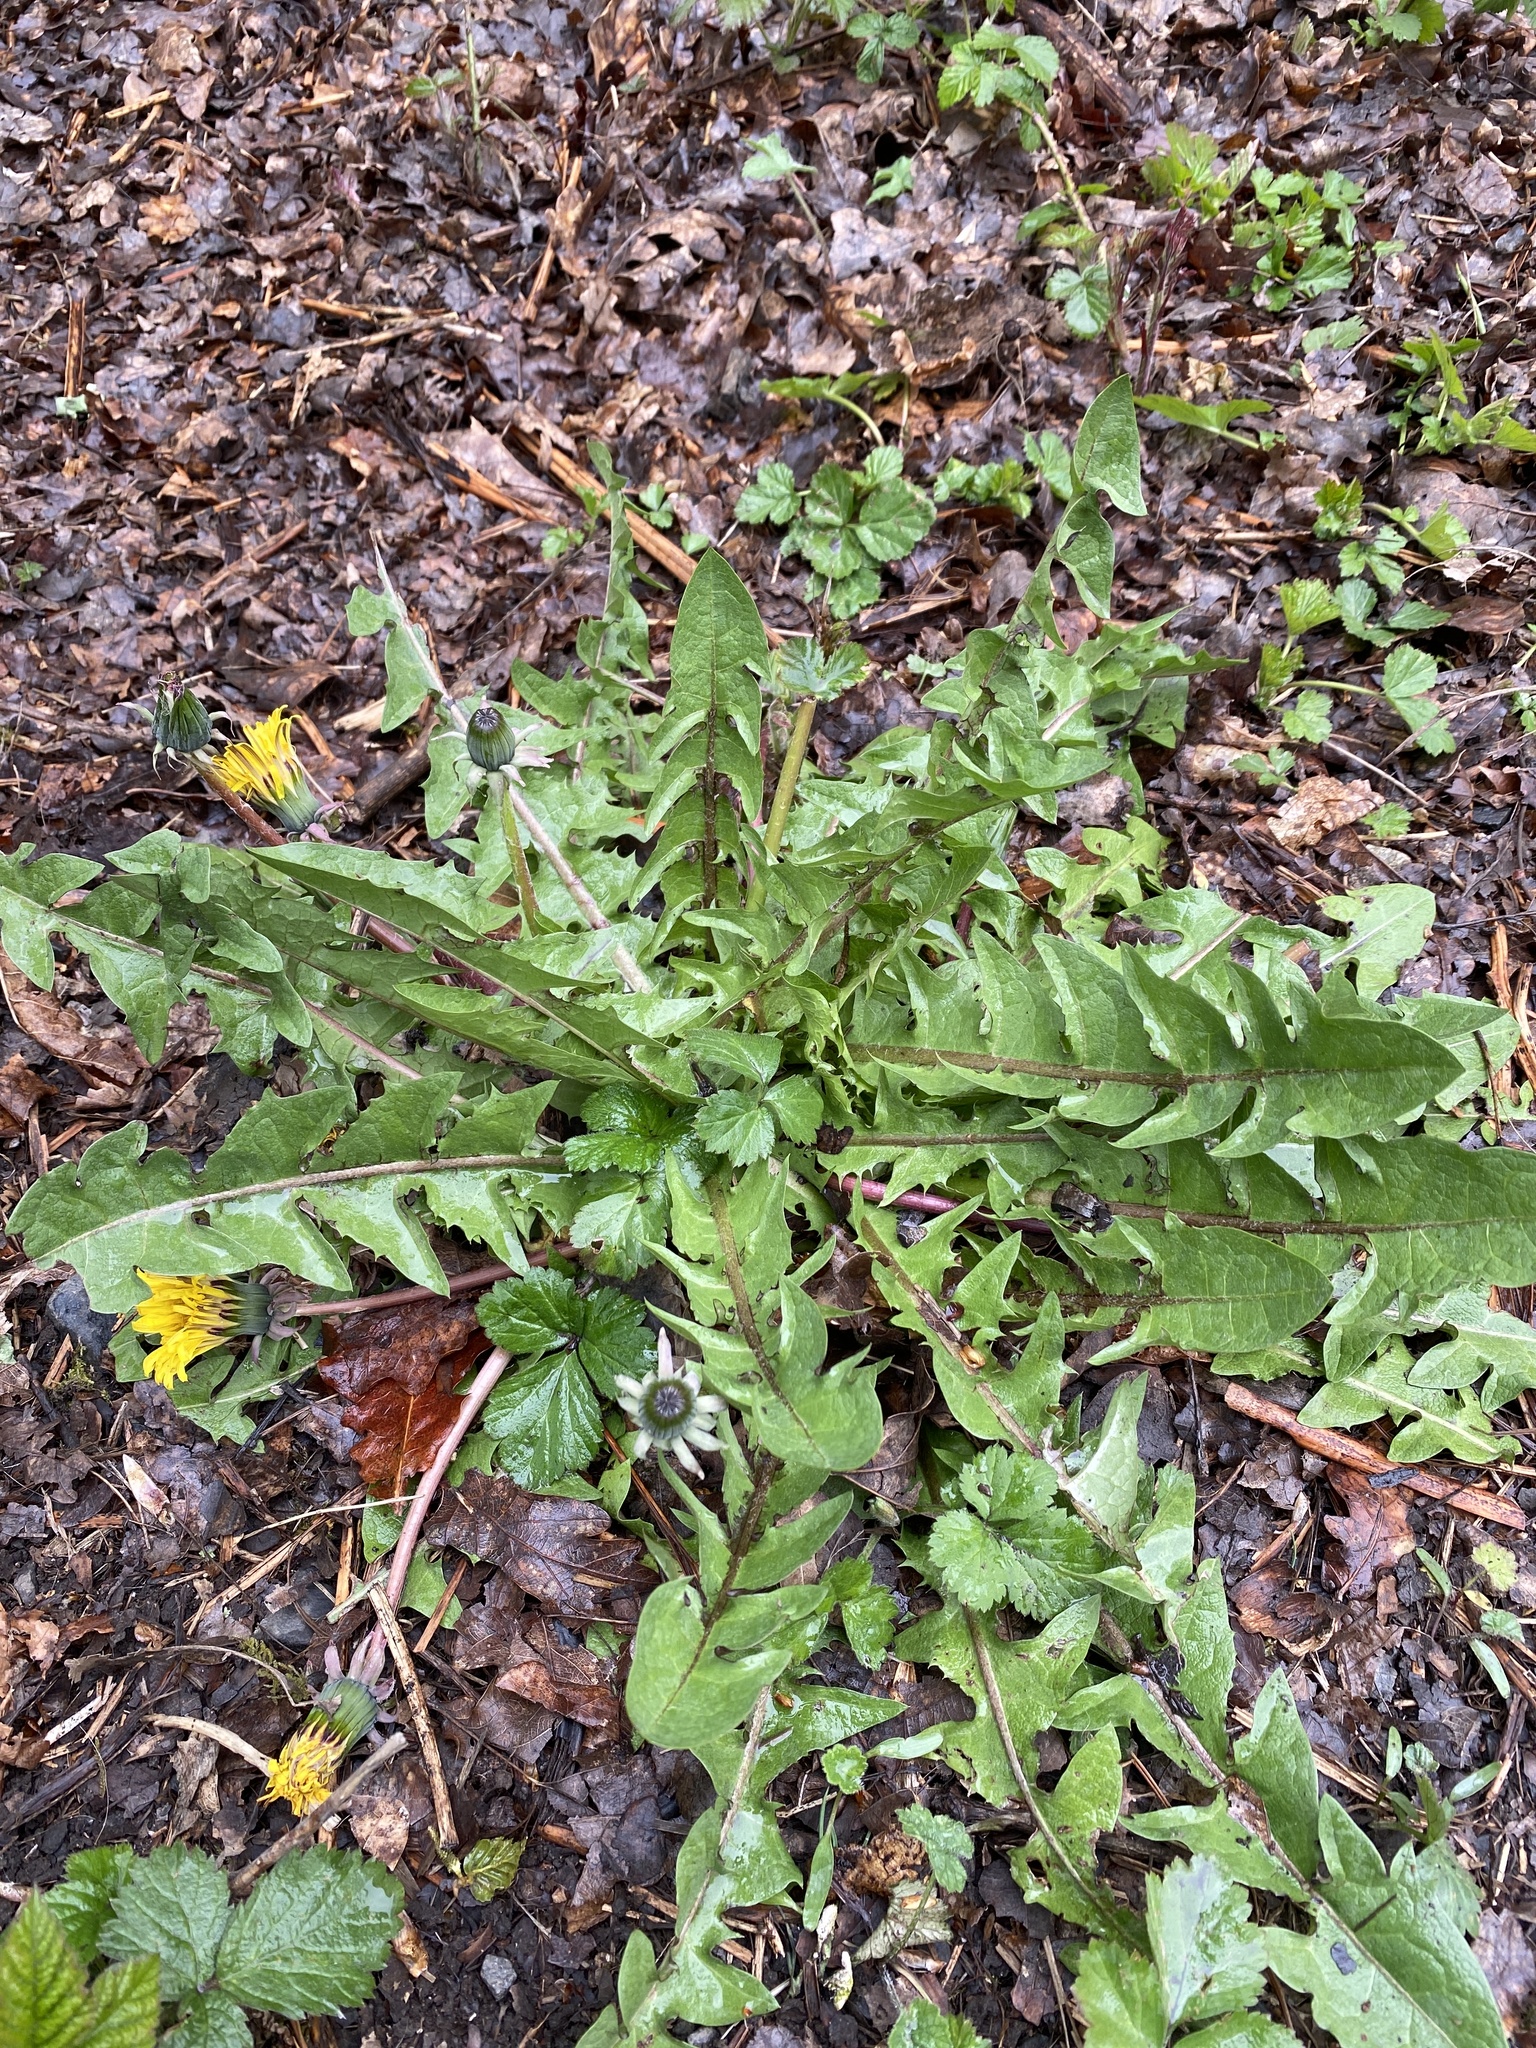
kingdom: Plantae
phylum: Tracheophyta
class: Magnoliopsida
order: Asterales
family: Asteraceae
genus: Taraxacum
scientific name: Taraxacum officinale
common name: Common dandelion
